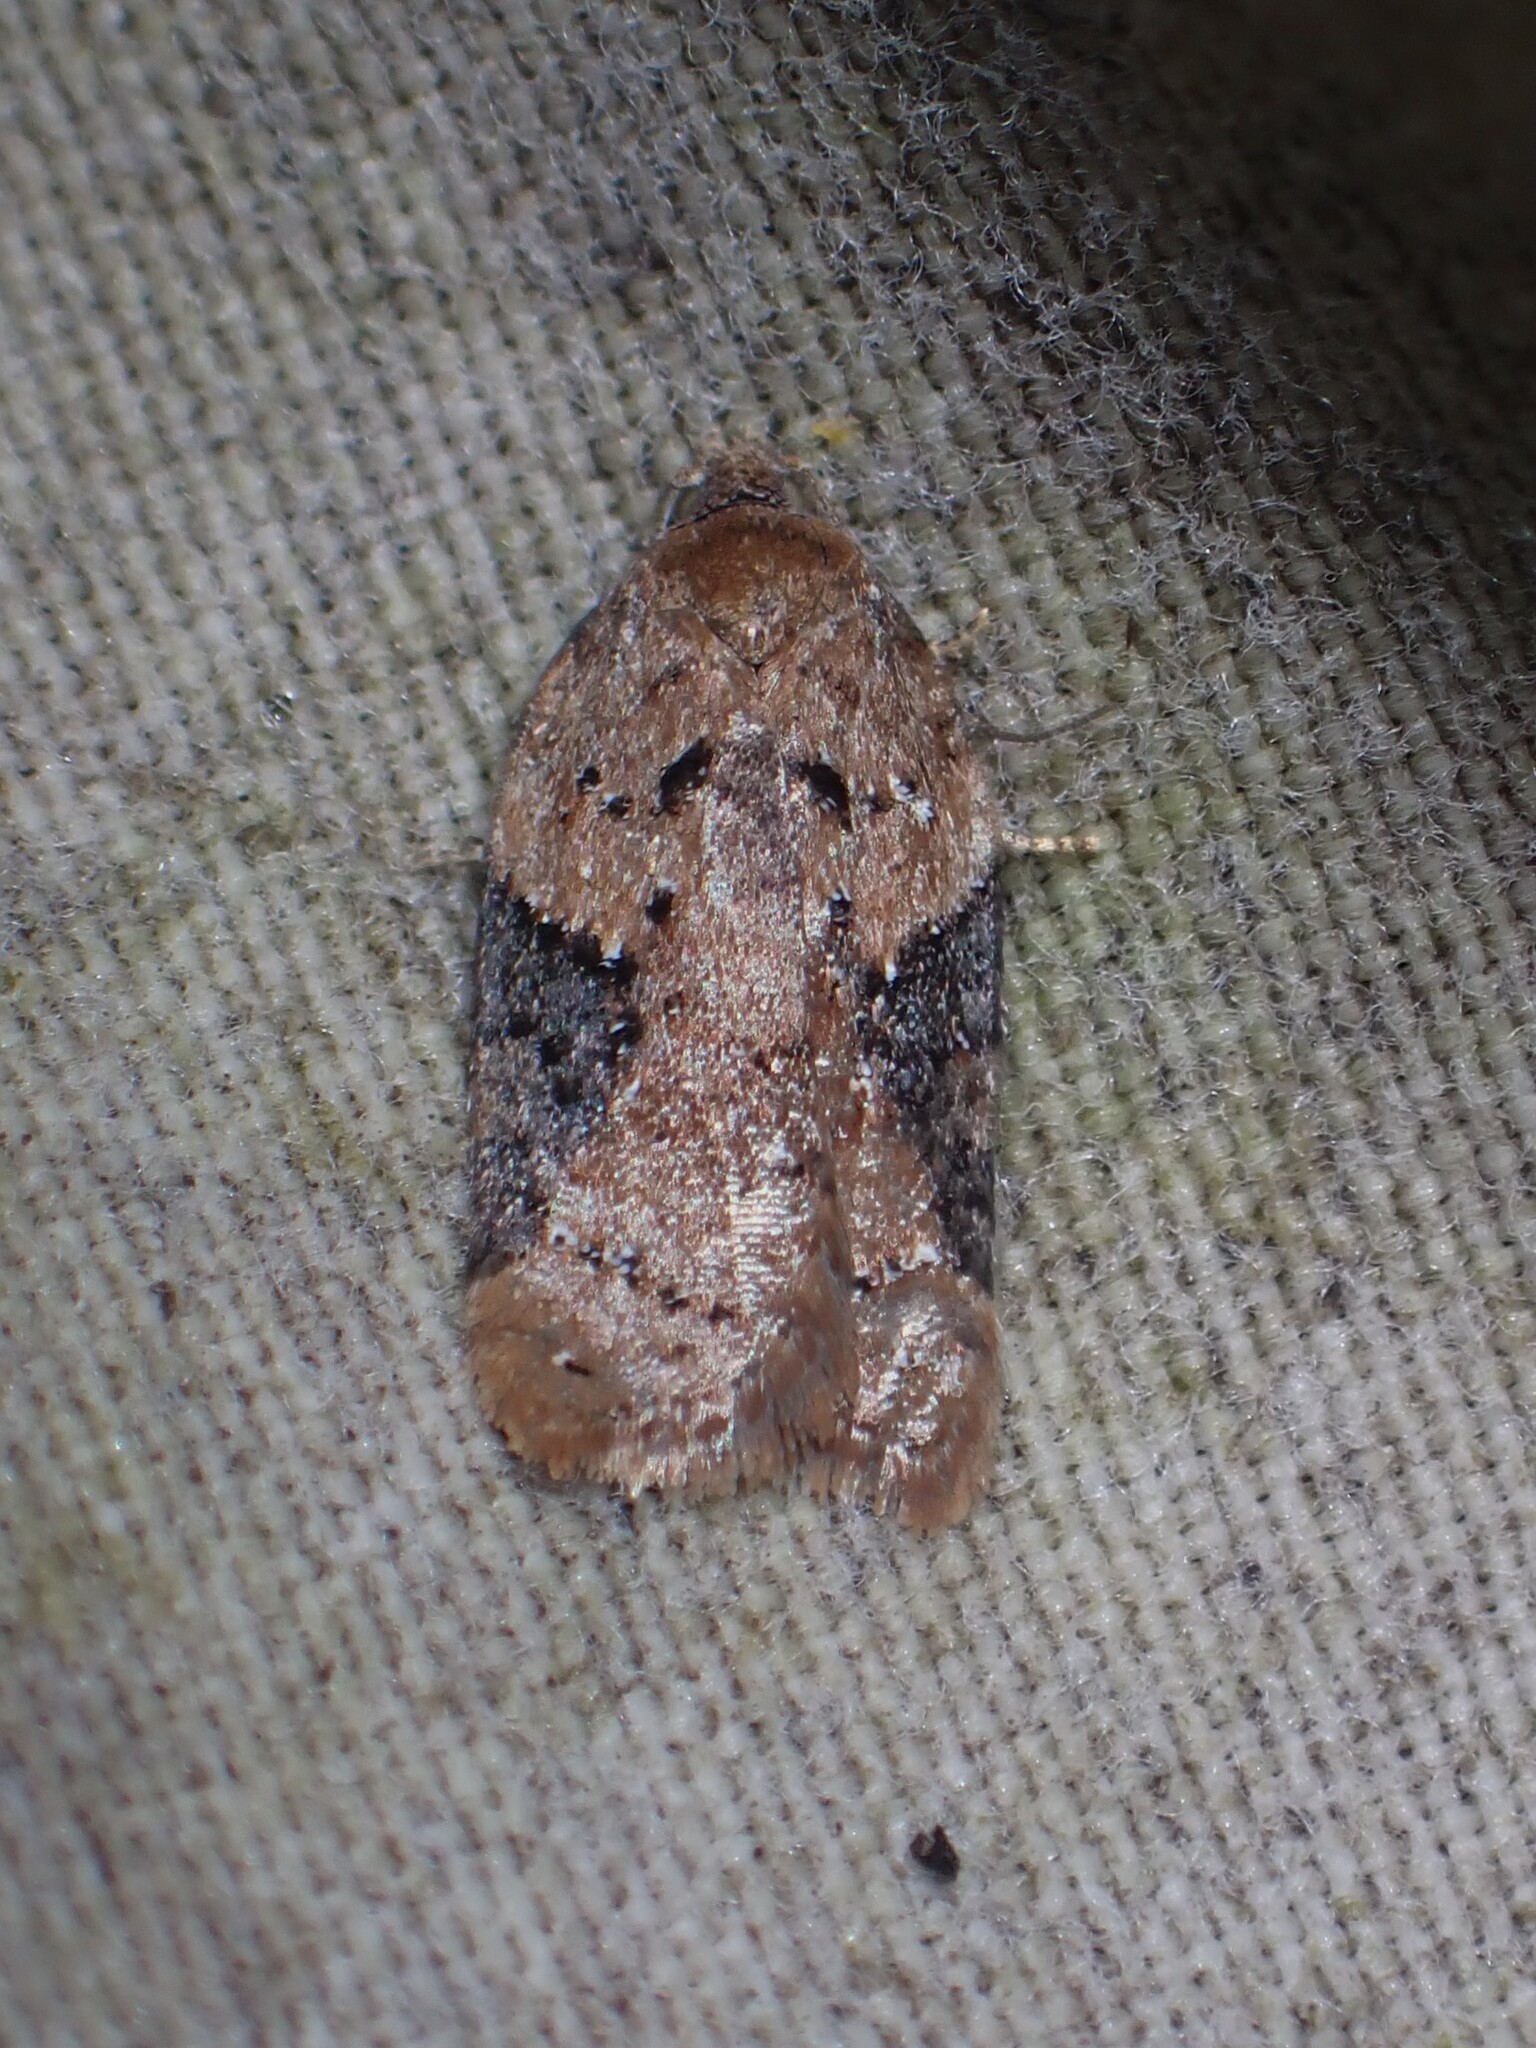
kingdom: Animalia
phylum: Arthropoda
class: Insecta
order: Lepidoptera
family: Tortricidae
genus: Acleris
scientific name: Acleris braunana
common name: Alder leafroller
